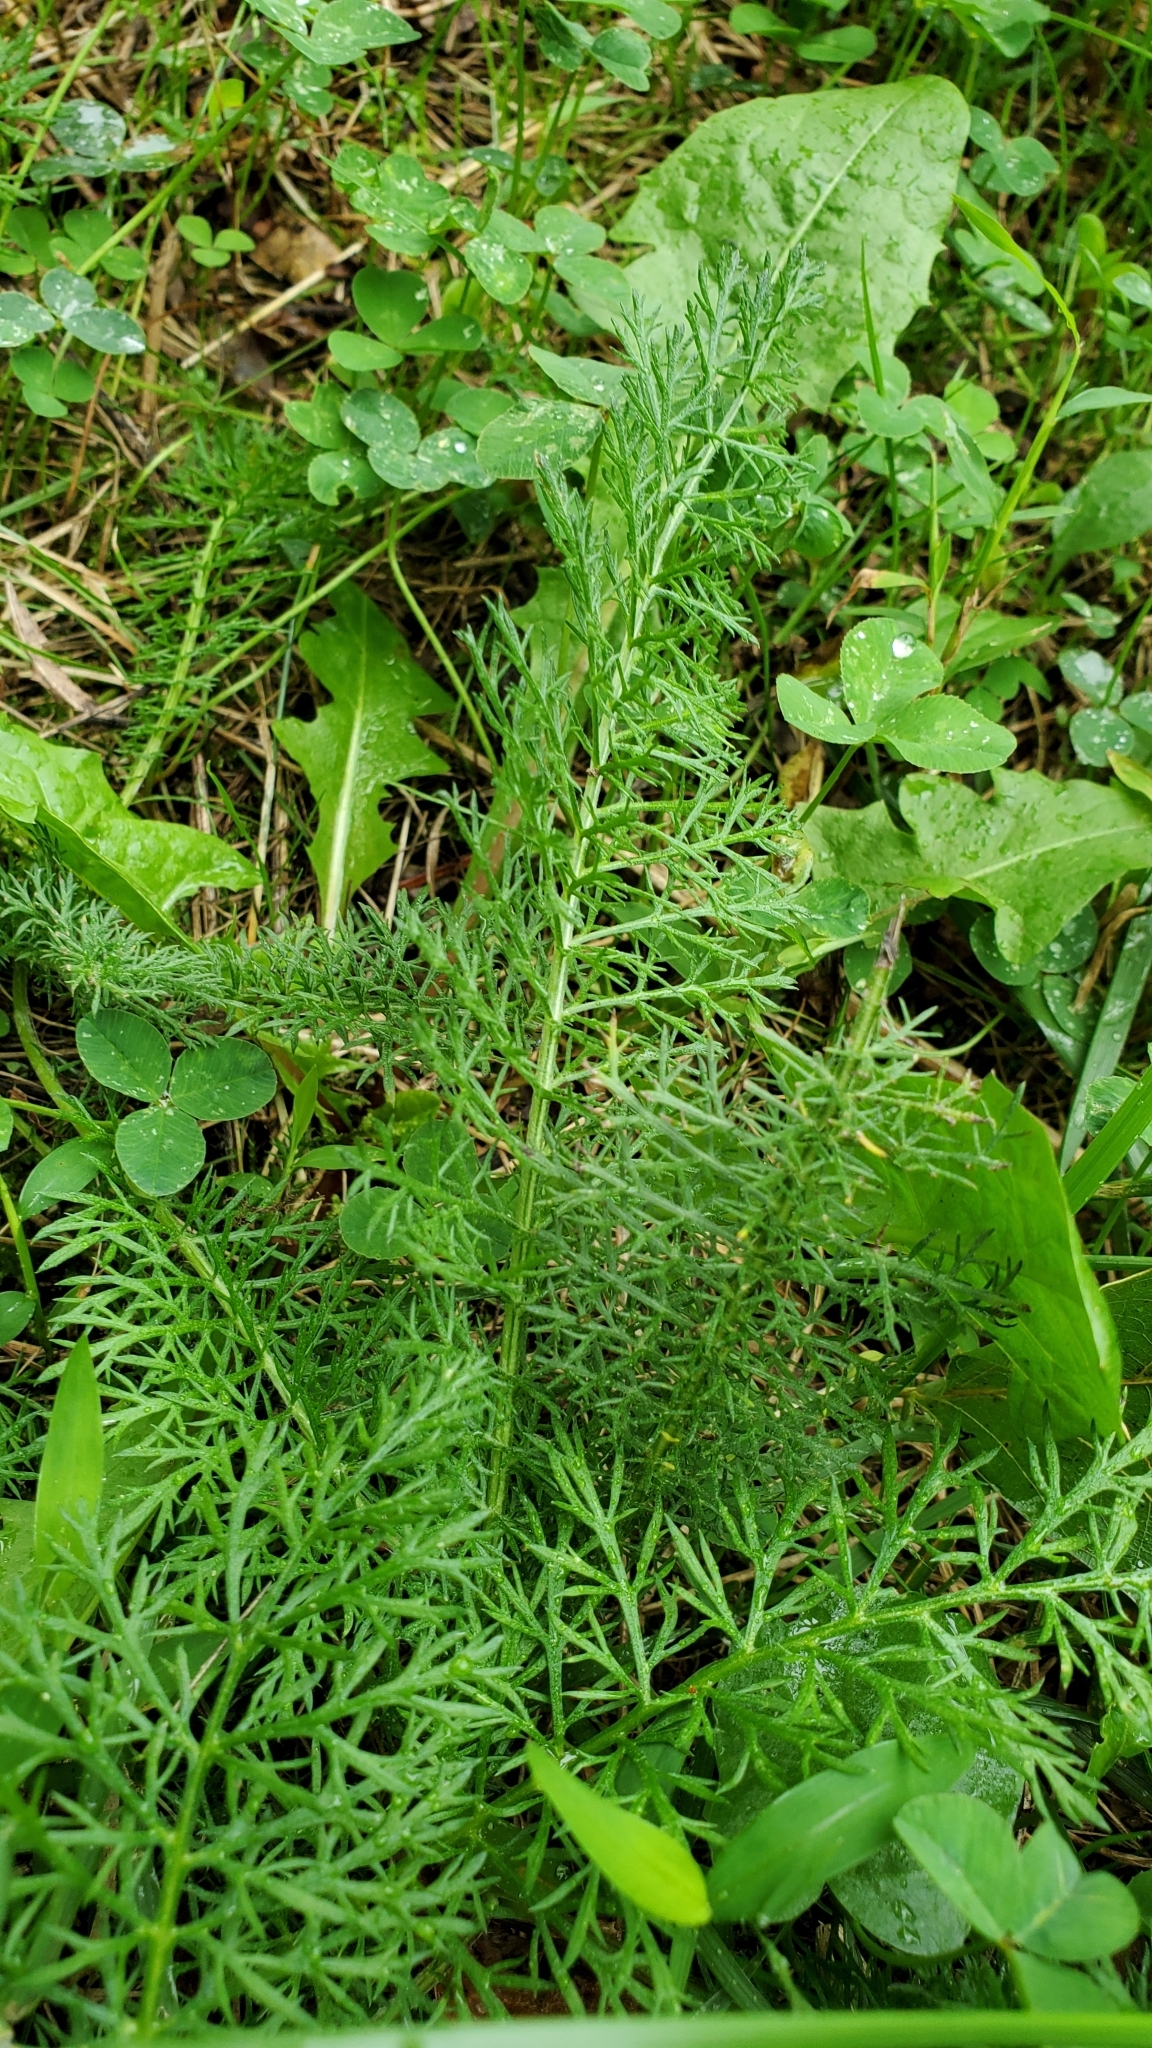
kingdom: Plantae
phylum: Tracheophyta
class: Magnoliopsida
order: Asterales
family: Asteraceae
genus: Achillea
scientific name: Achillea millefolium
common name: Yarrow
